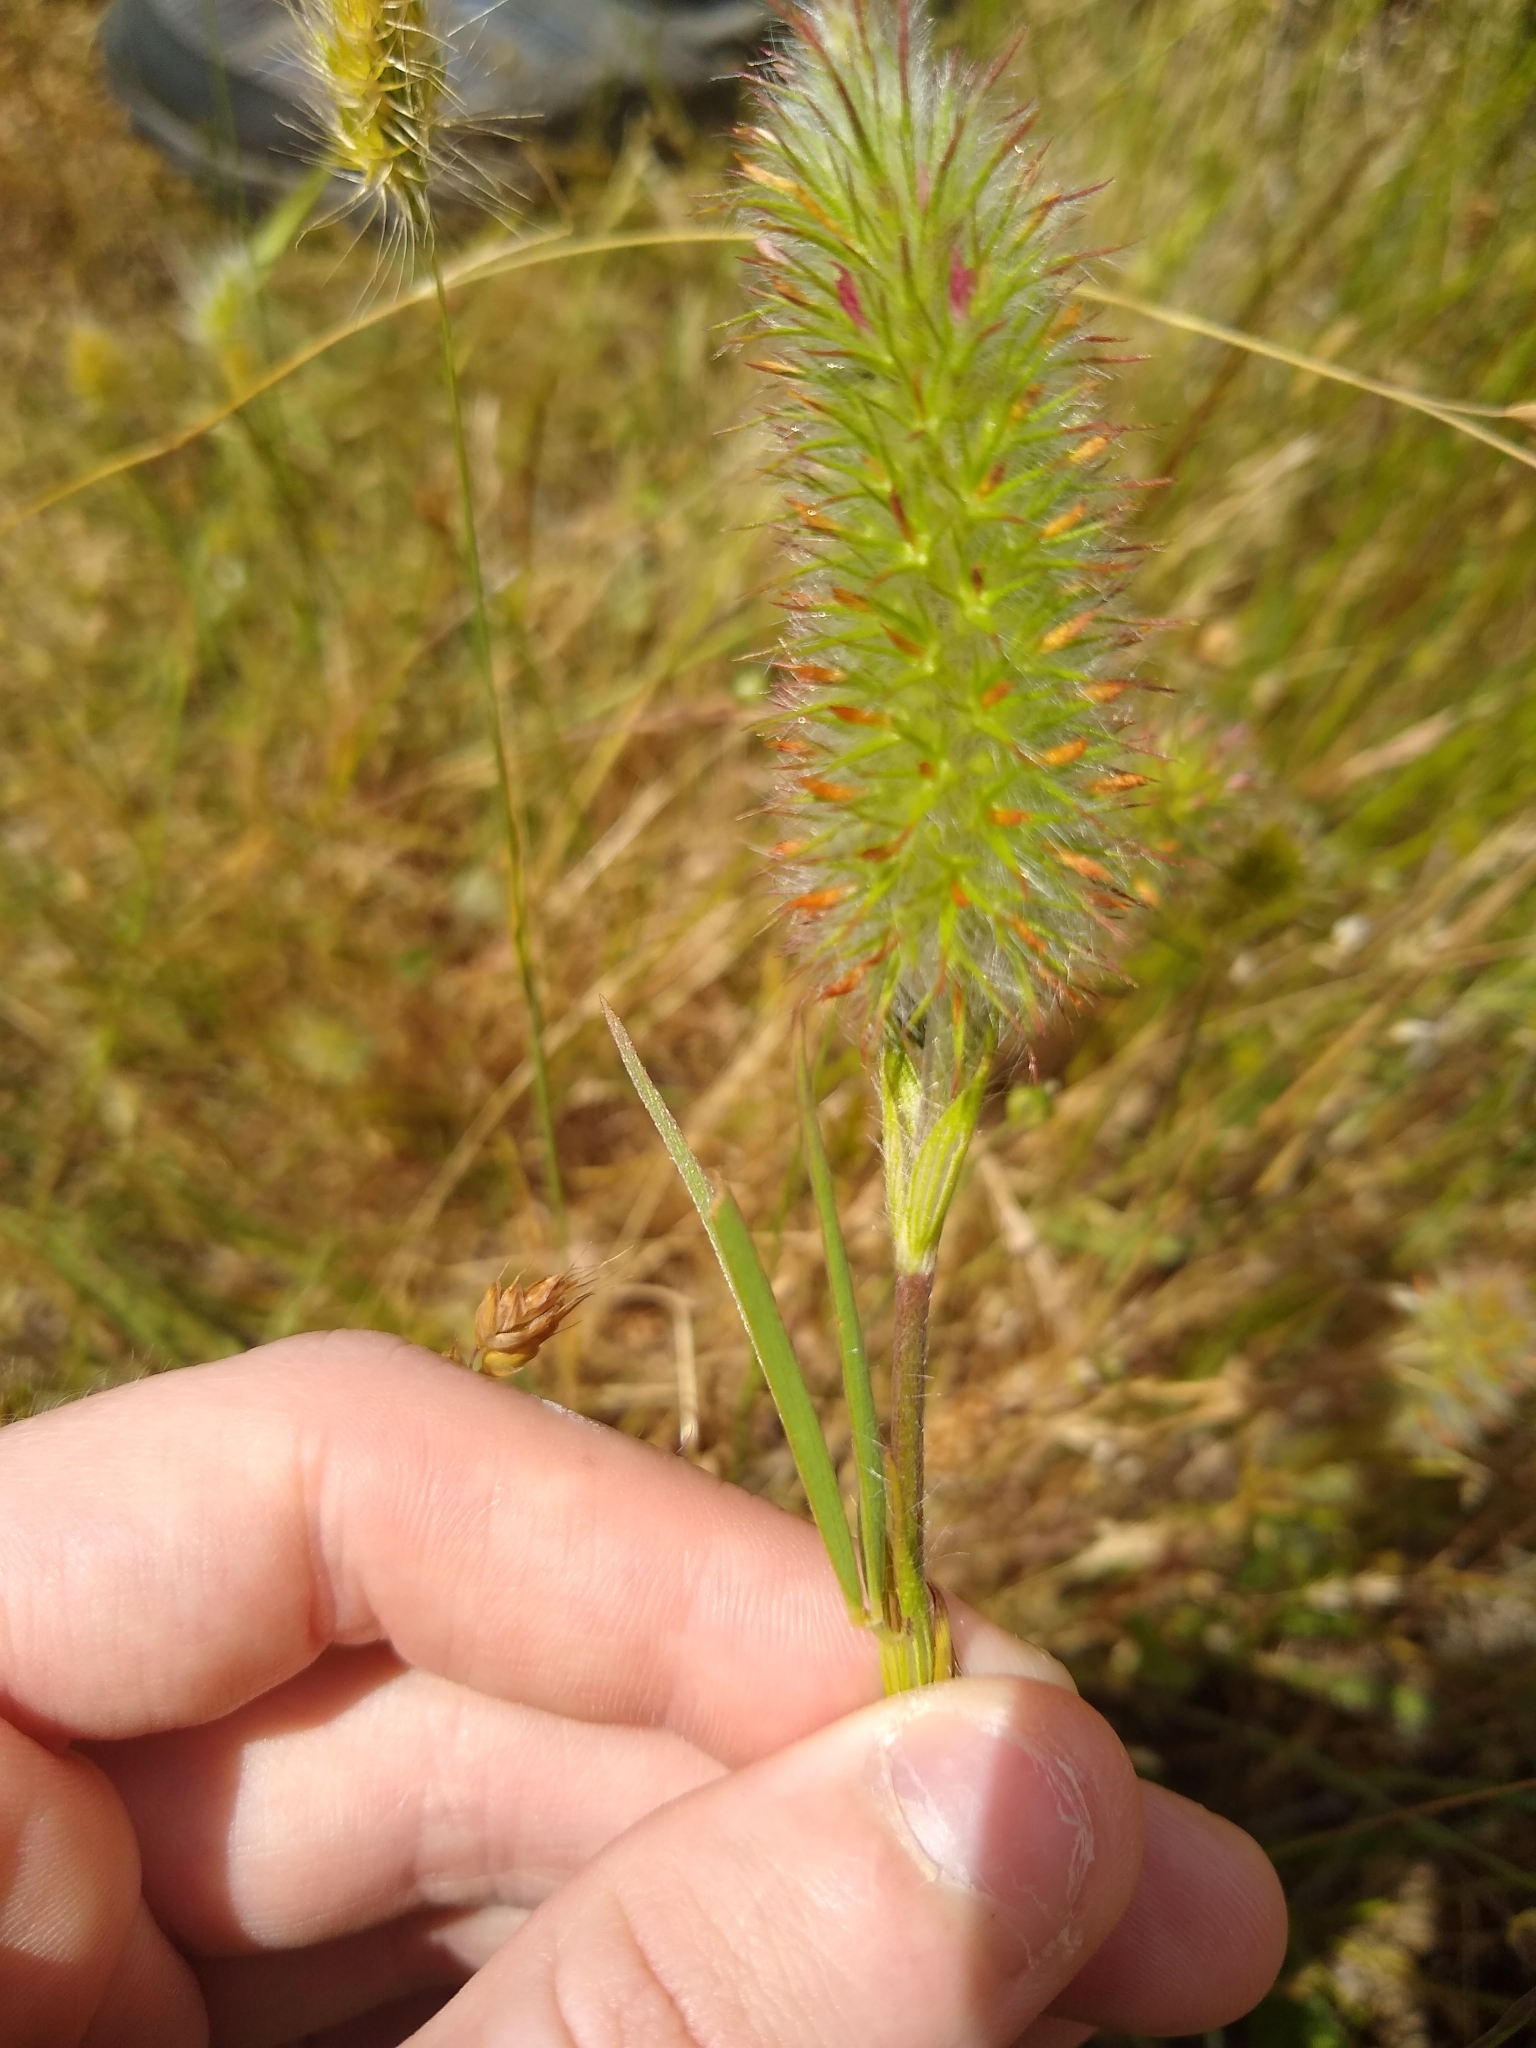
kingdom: Plantae
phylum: Tracheophyta
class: Magnoliopsida
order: Fabales
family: Fabaceae
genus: Trifolium
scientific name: Trifolium angustifolium
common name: Narrow clover
